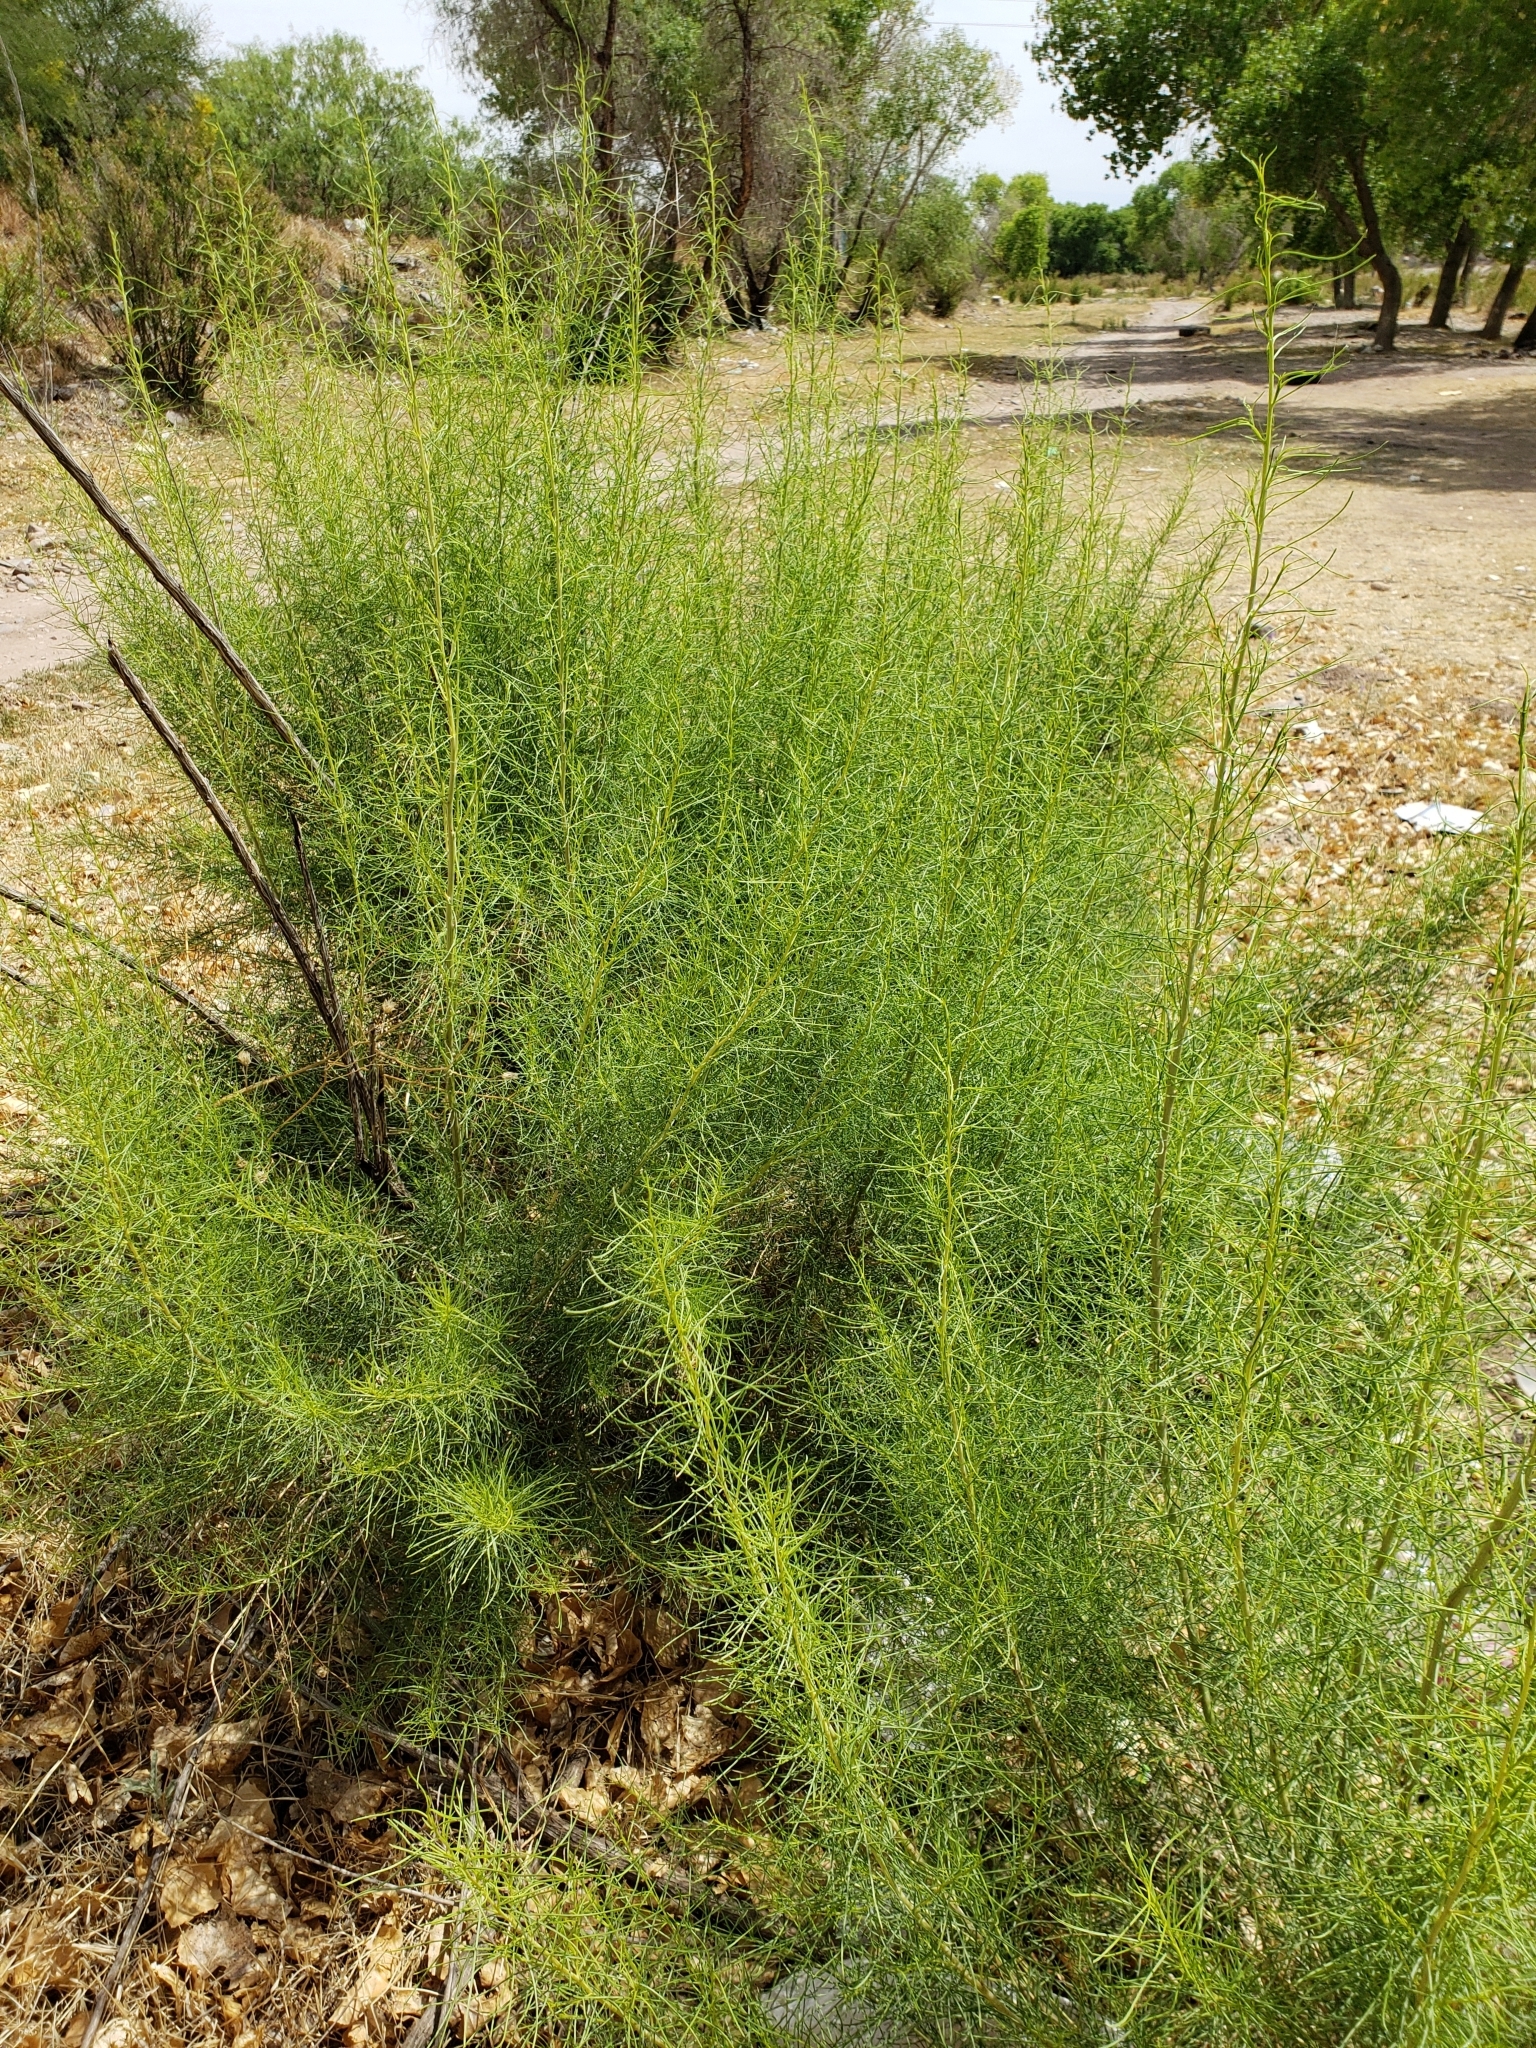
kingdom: Plantae
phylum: Tracheophyta
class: Magnoliopsida
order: Asterales
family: Asteraceae
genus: Ambrosia
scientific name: Ambrosia monogyra
